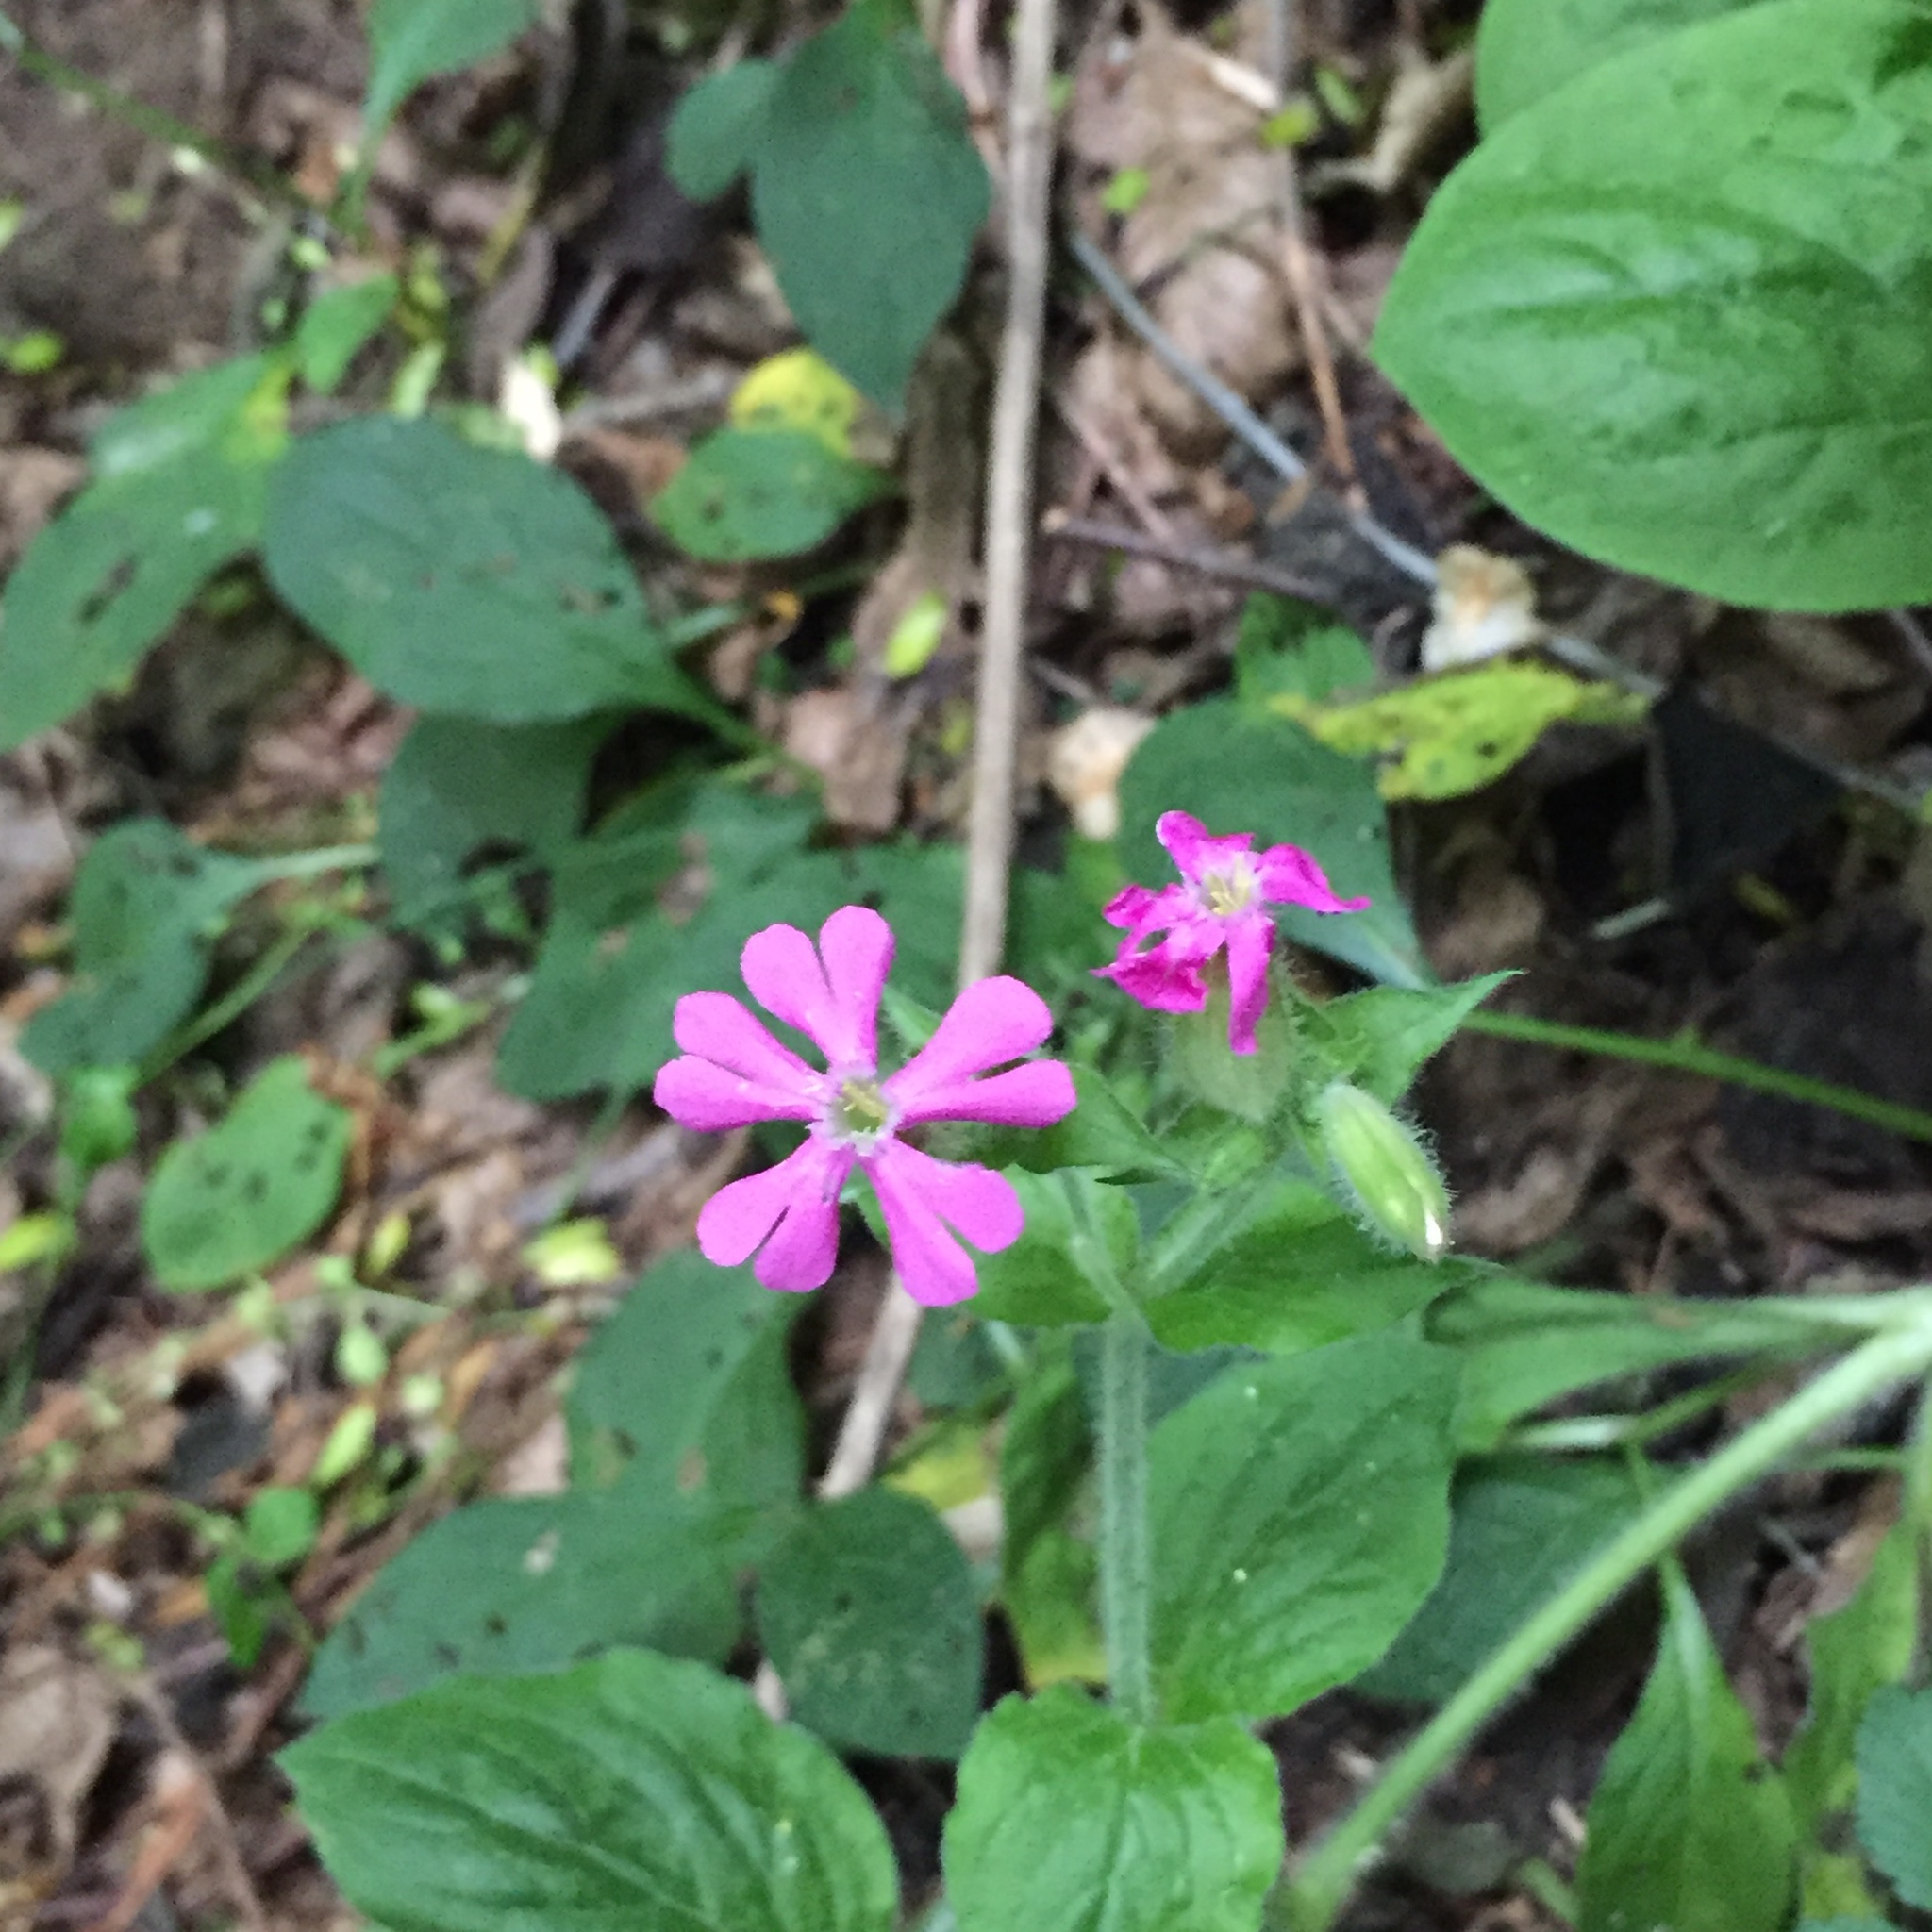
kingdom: Plantae
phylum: Tracheophyta
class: Magnoliopsida
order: Caryophyllales
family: Caryophyllaceae
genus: Silene
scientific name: Silene dioica
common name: Red campion
